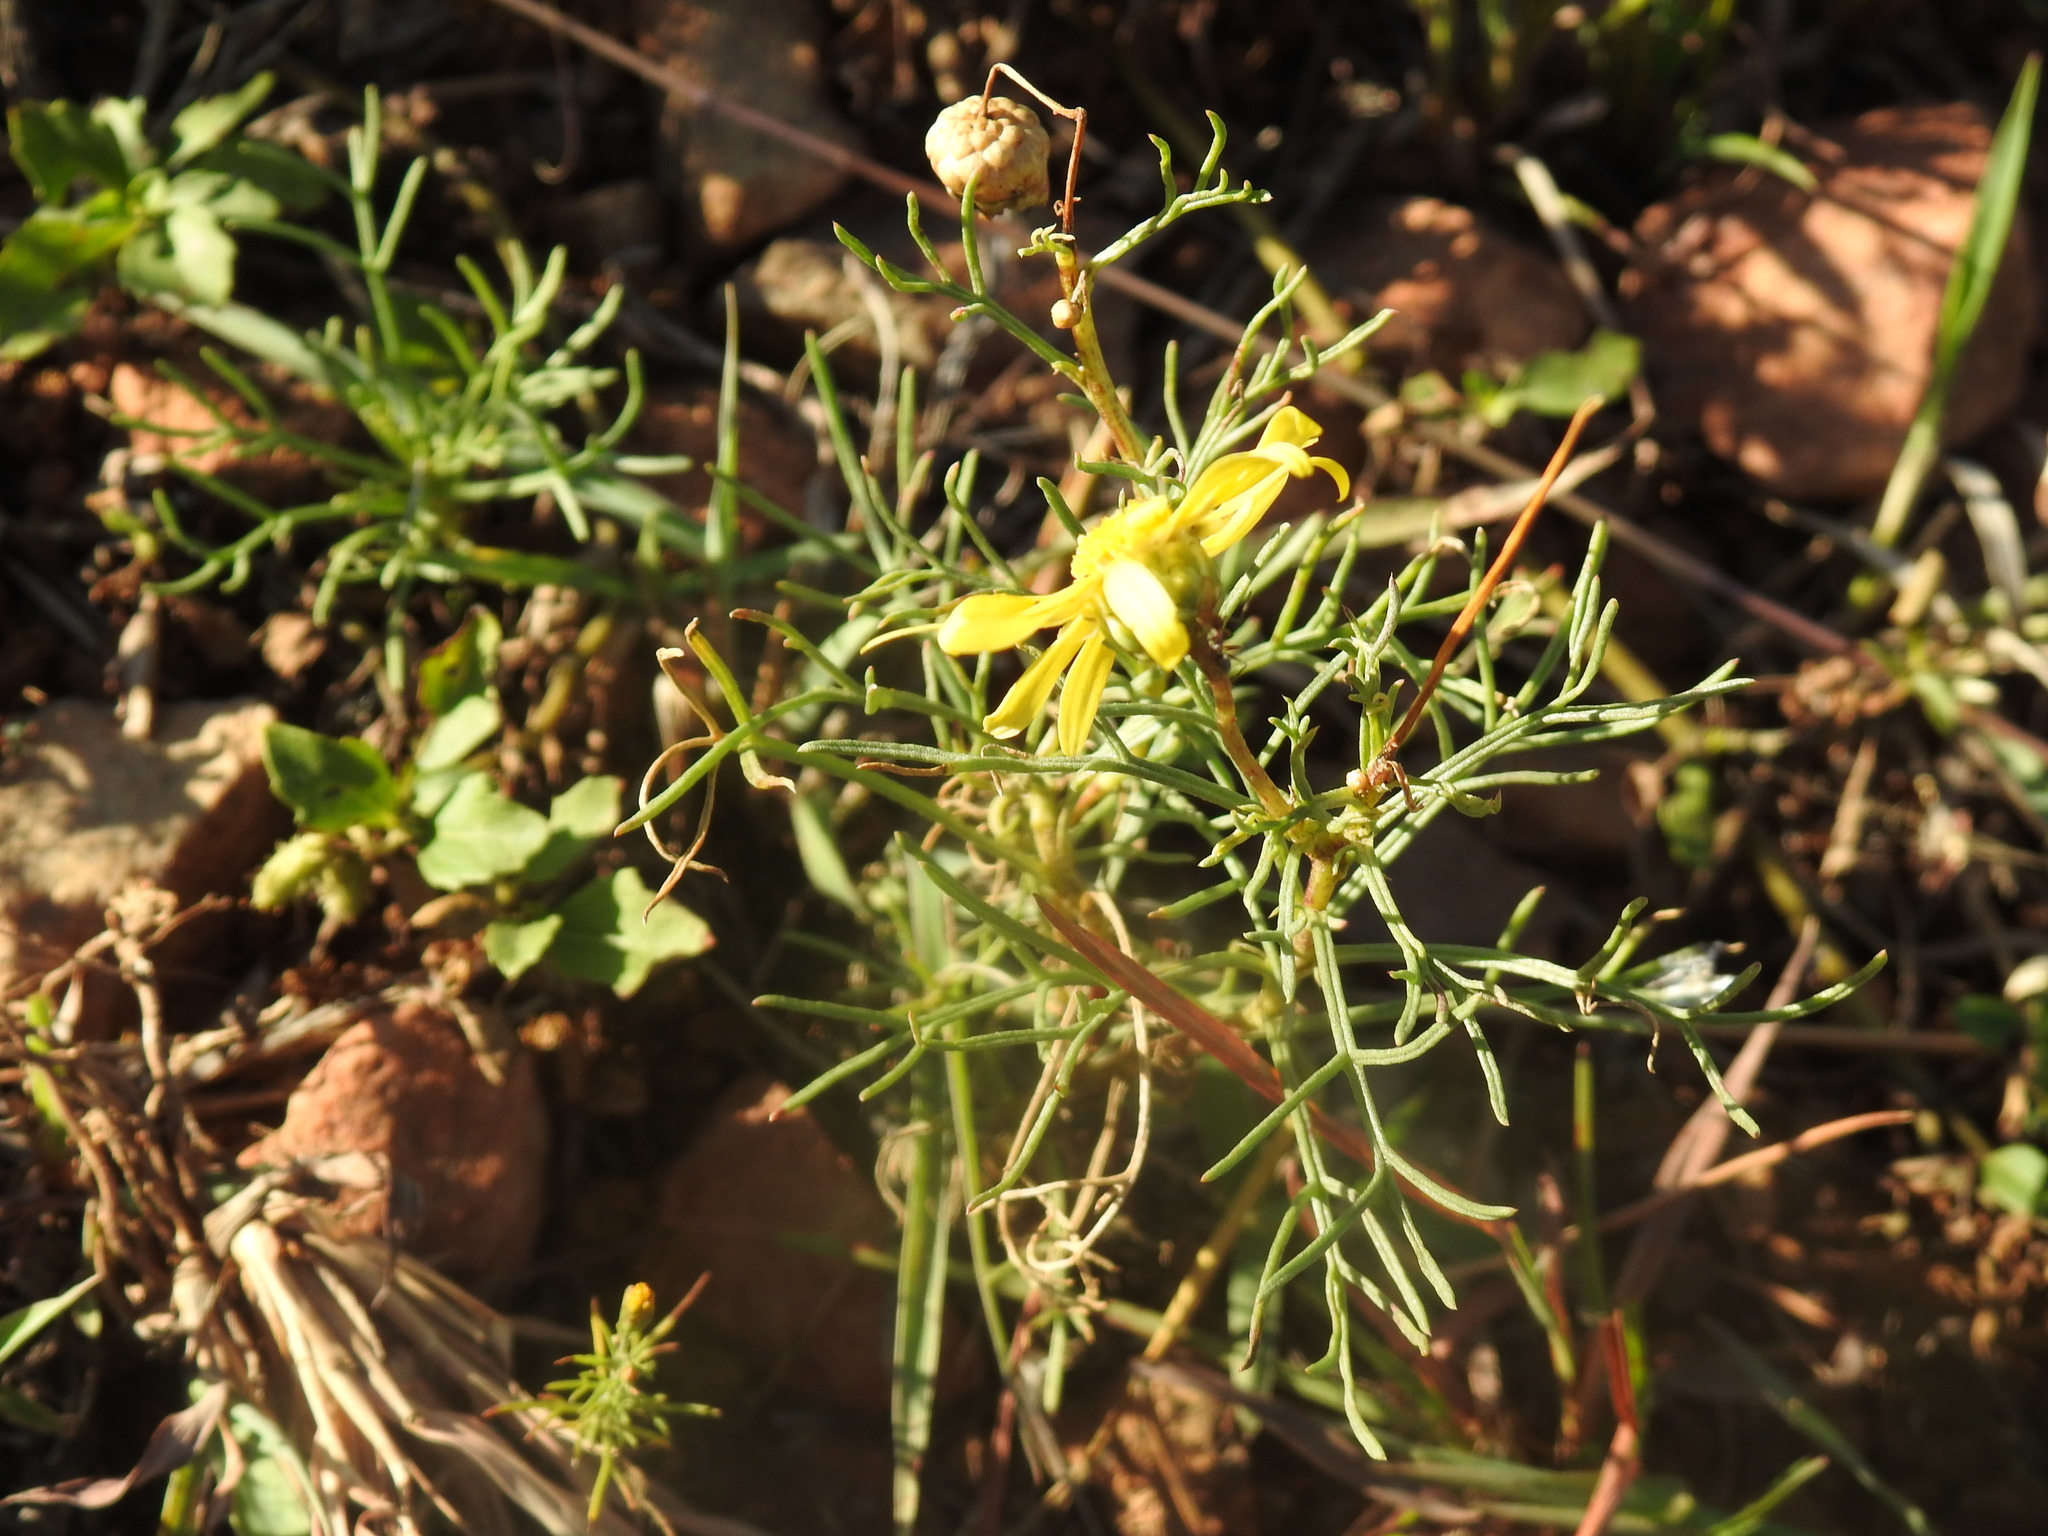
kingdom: Plantae
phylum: Tracheophyta
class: Magnoliopsida
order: Asterales
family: Asteraceae
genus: Ursinia
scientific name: Ursinia nana
